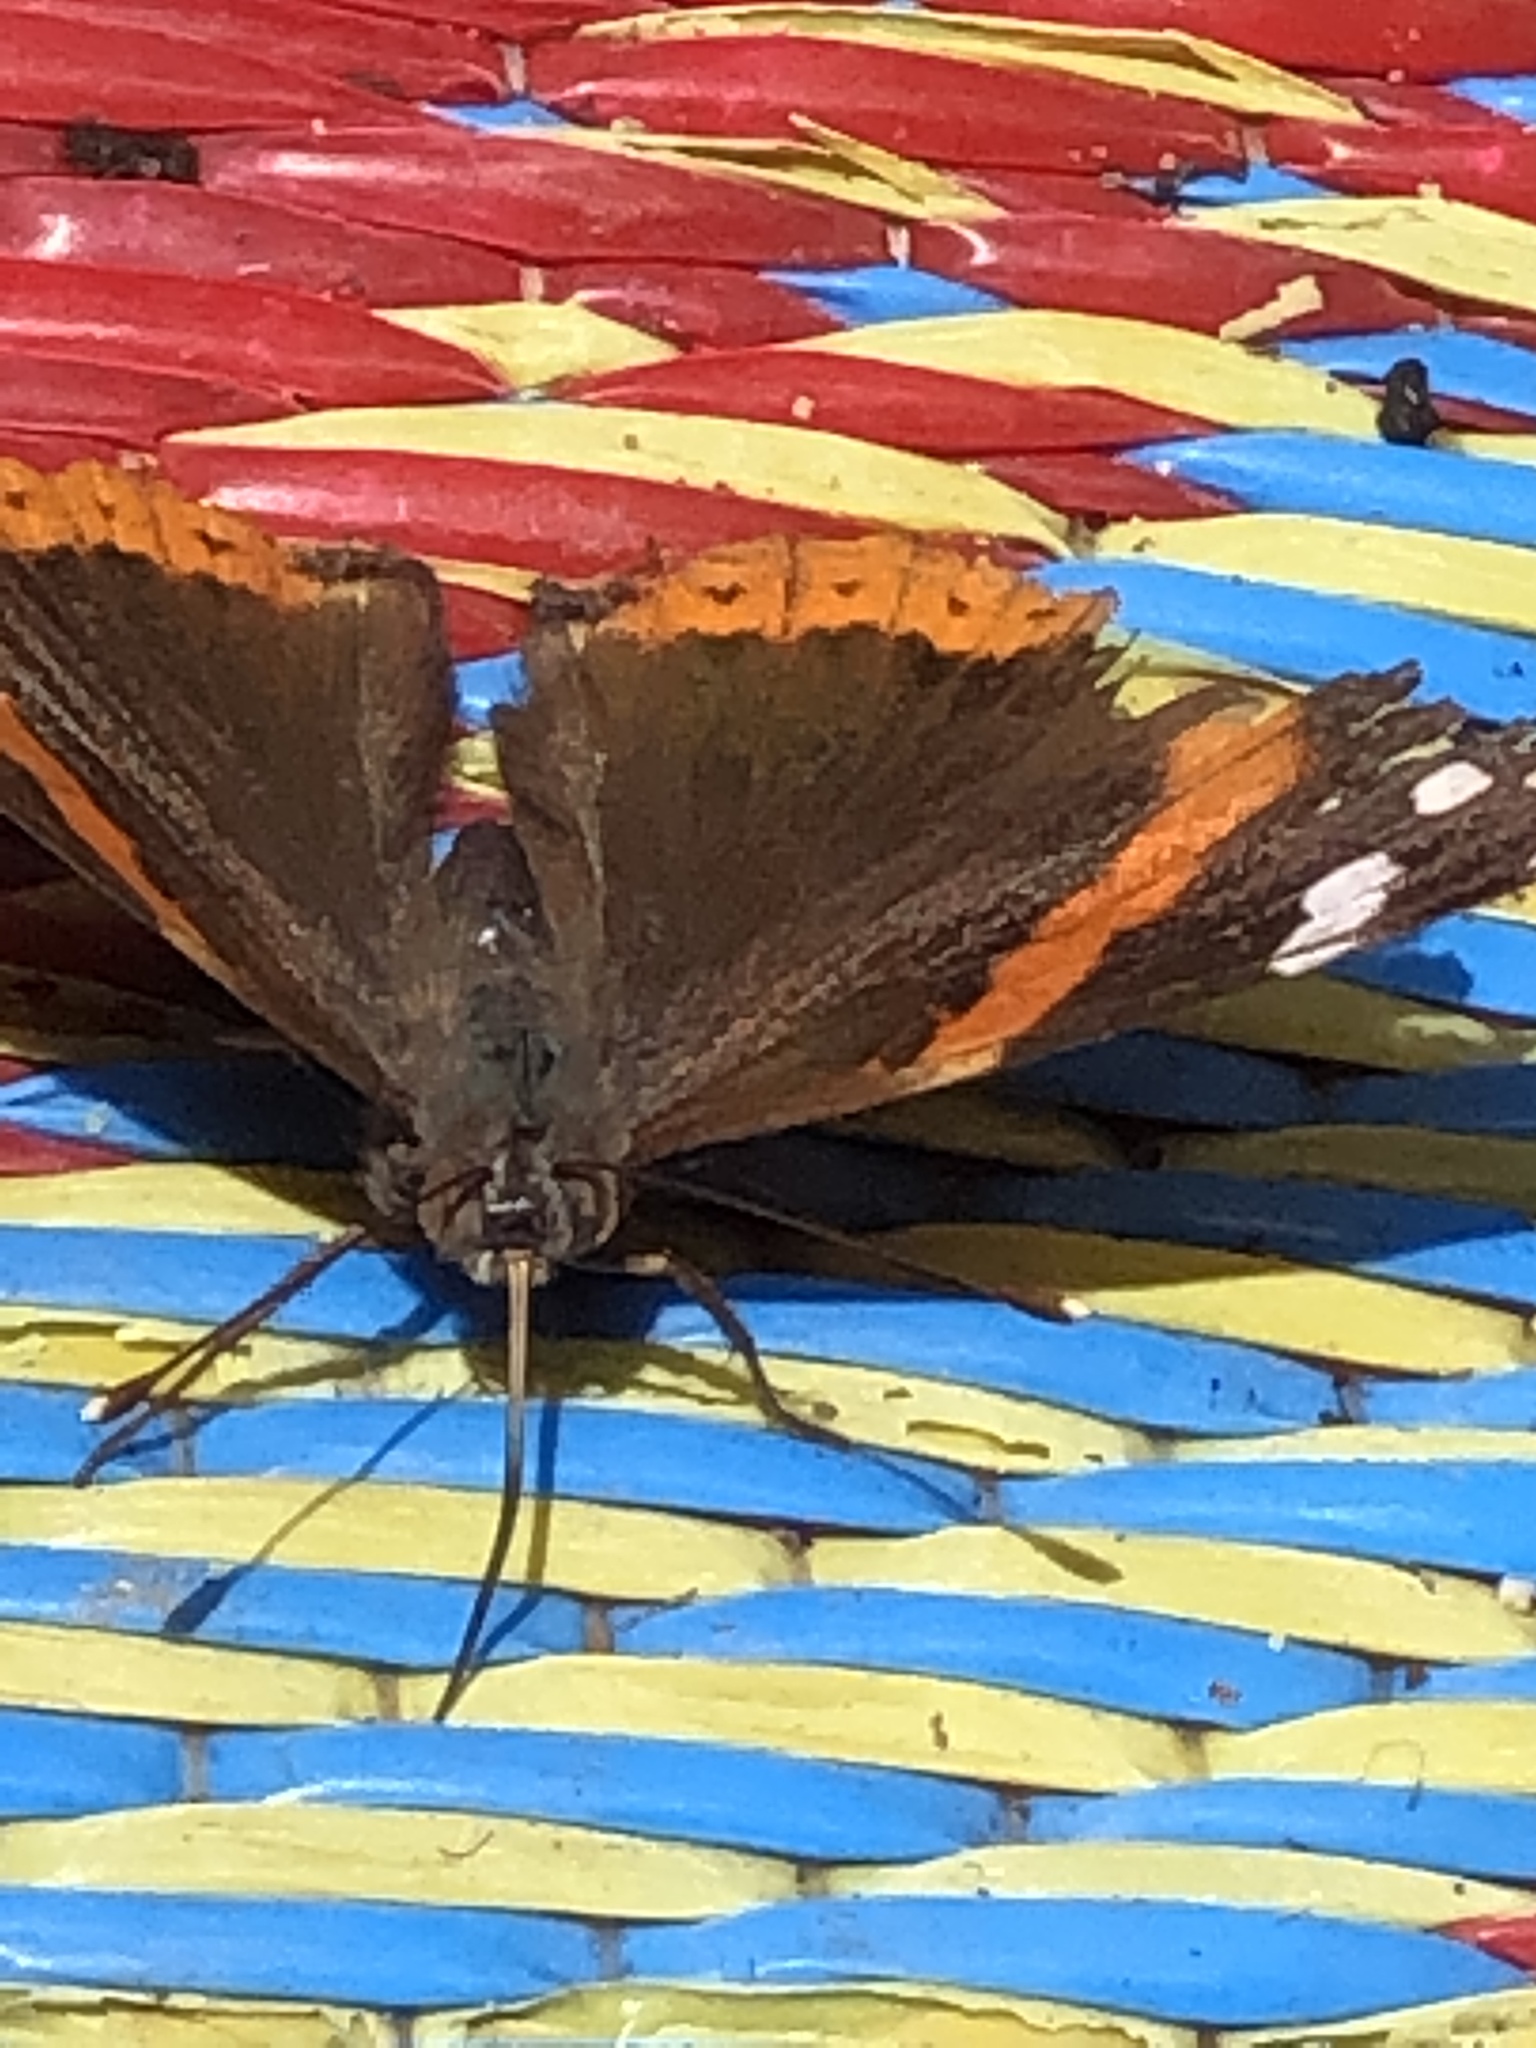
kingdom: Animalia
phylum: Arthropoda
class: Insecta
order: Lepidoptera
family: Nymphalidae
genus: Vanessa
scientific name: Vanessa atalanta
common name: Red admiral
